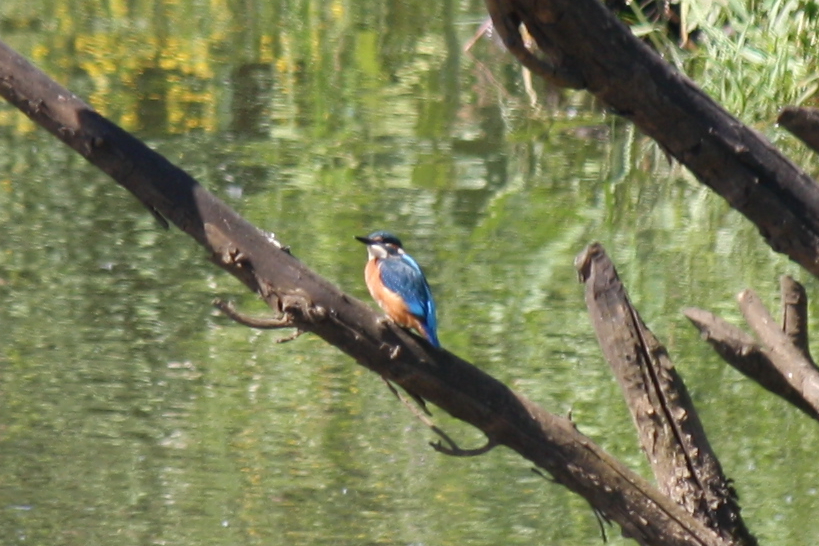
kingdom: Animalia
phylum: Chordata
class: Aves
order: Coraciiformes
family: Alcedinidae
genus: Alcedo
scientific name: Alcedo atthis
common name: Common kingfisher
